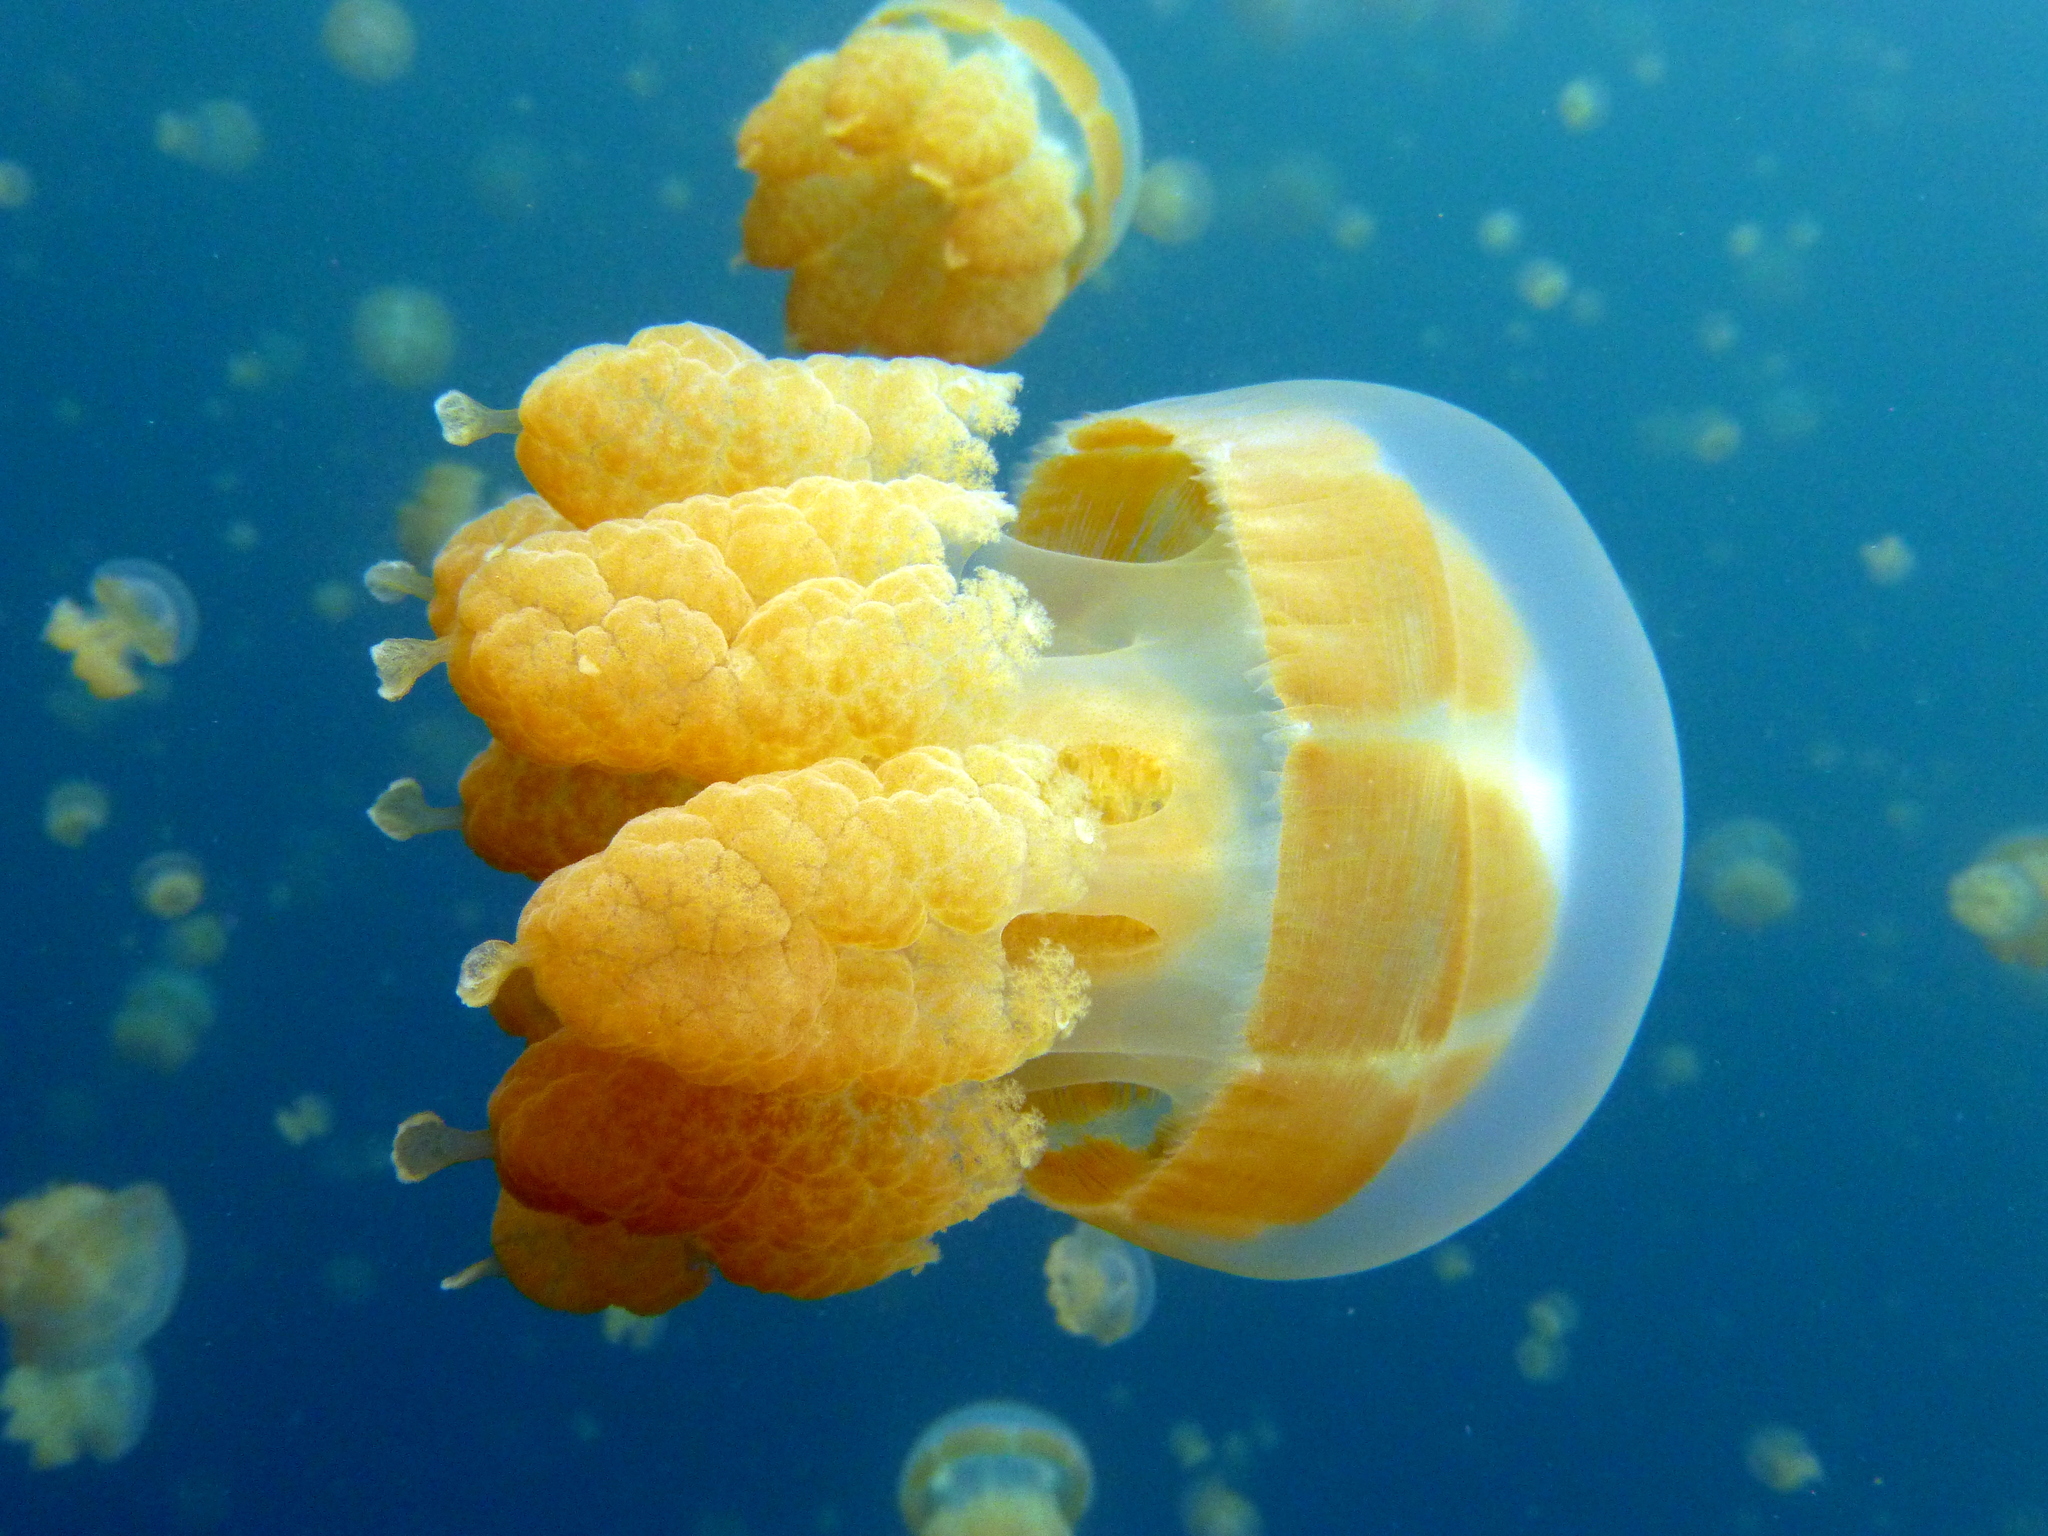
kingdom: Animalia
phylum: Cnidaria
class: Scyphozoa
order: Rhizostomeae
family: Mastigiidae
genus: Mastigias
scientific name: Mastigias papua
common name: Papuan jellyfish
